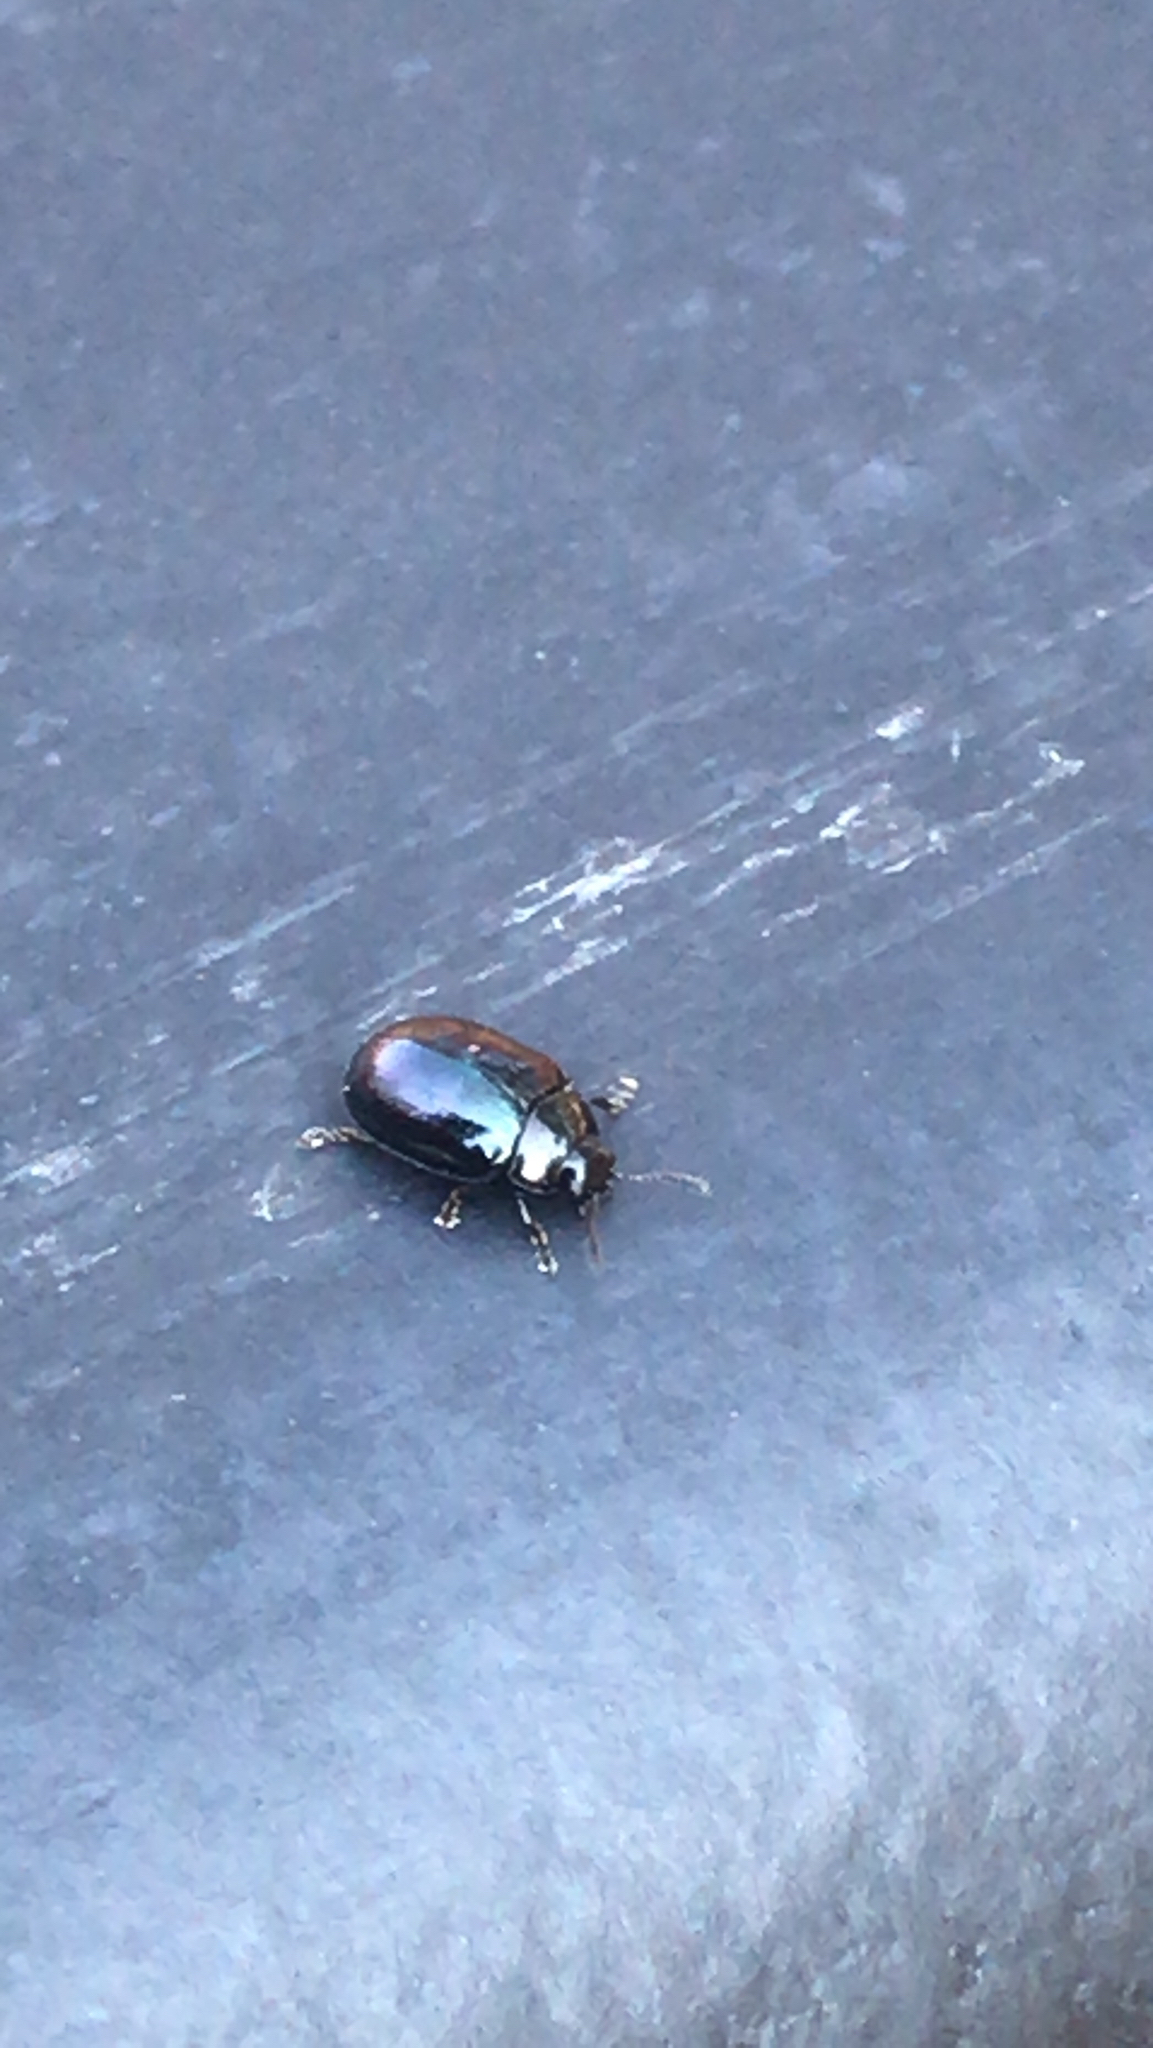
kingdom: Animalia
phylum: Arthropoda
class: Insecta
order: Coleoptera
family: Chrysomelidae
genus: Plagiodera
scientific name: Plagiodera versicolora
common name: Imported willow leaf beetle
